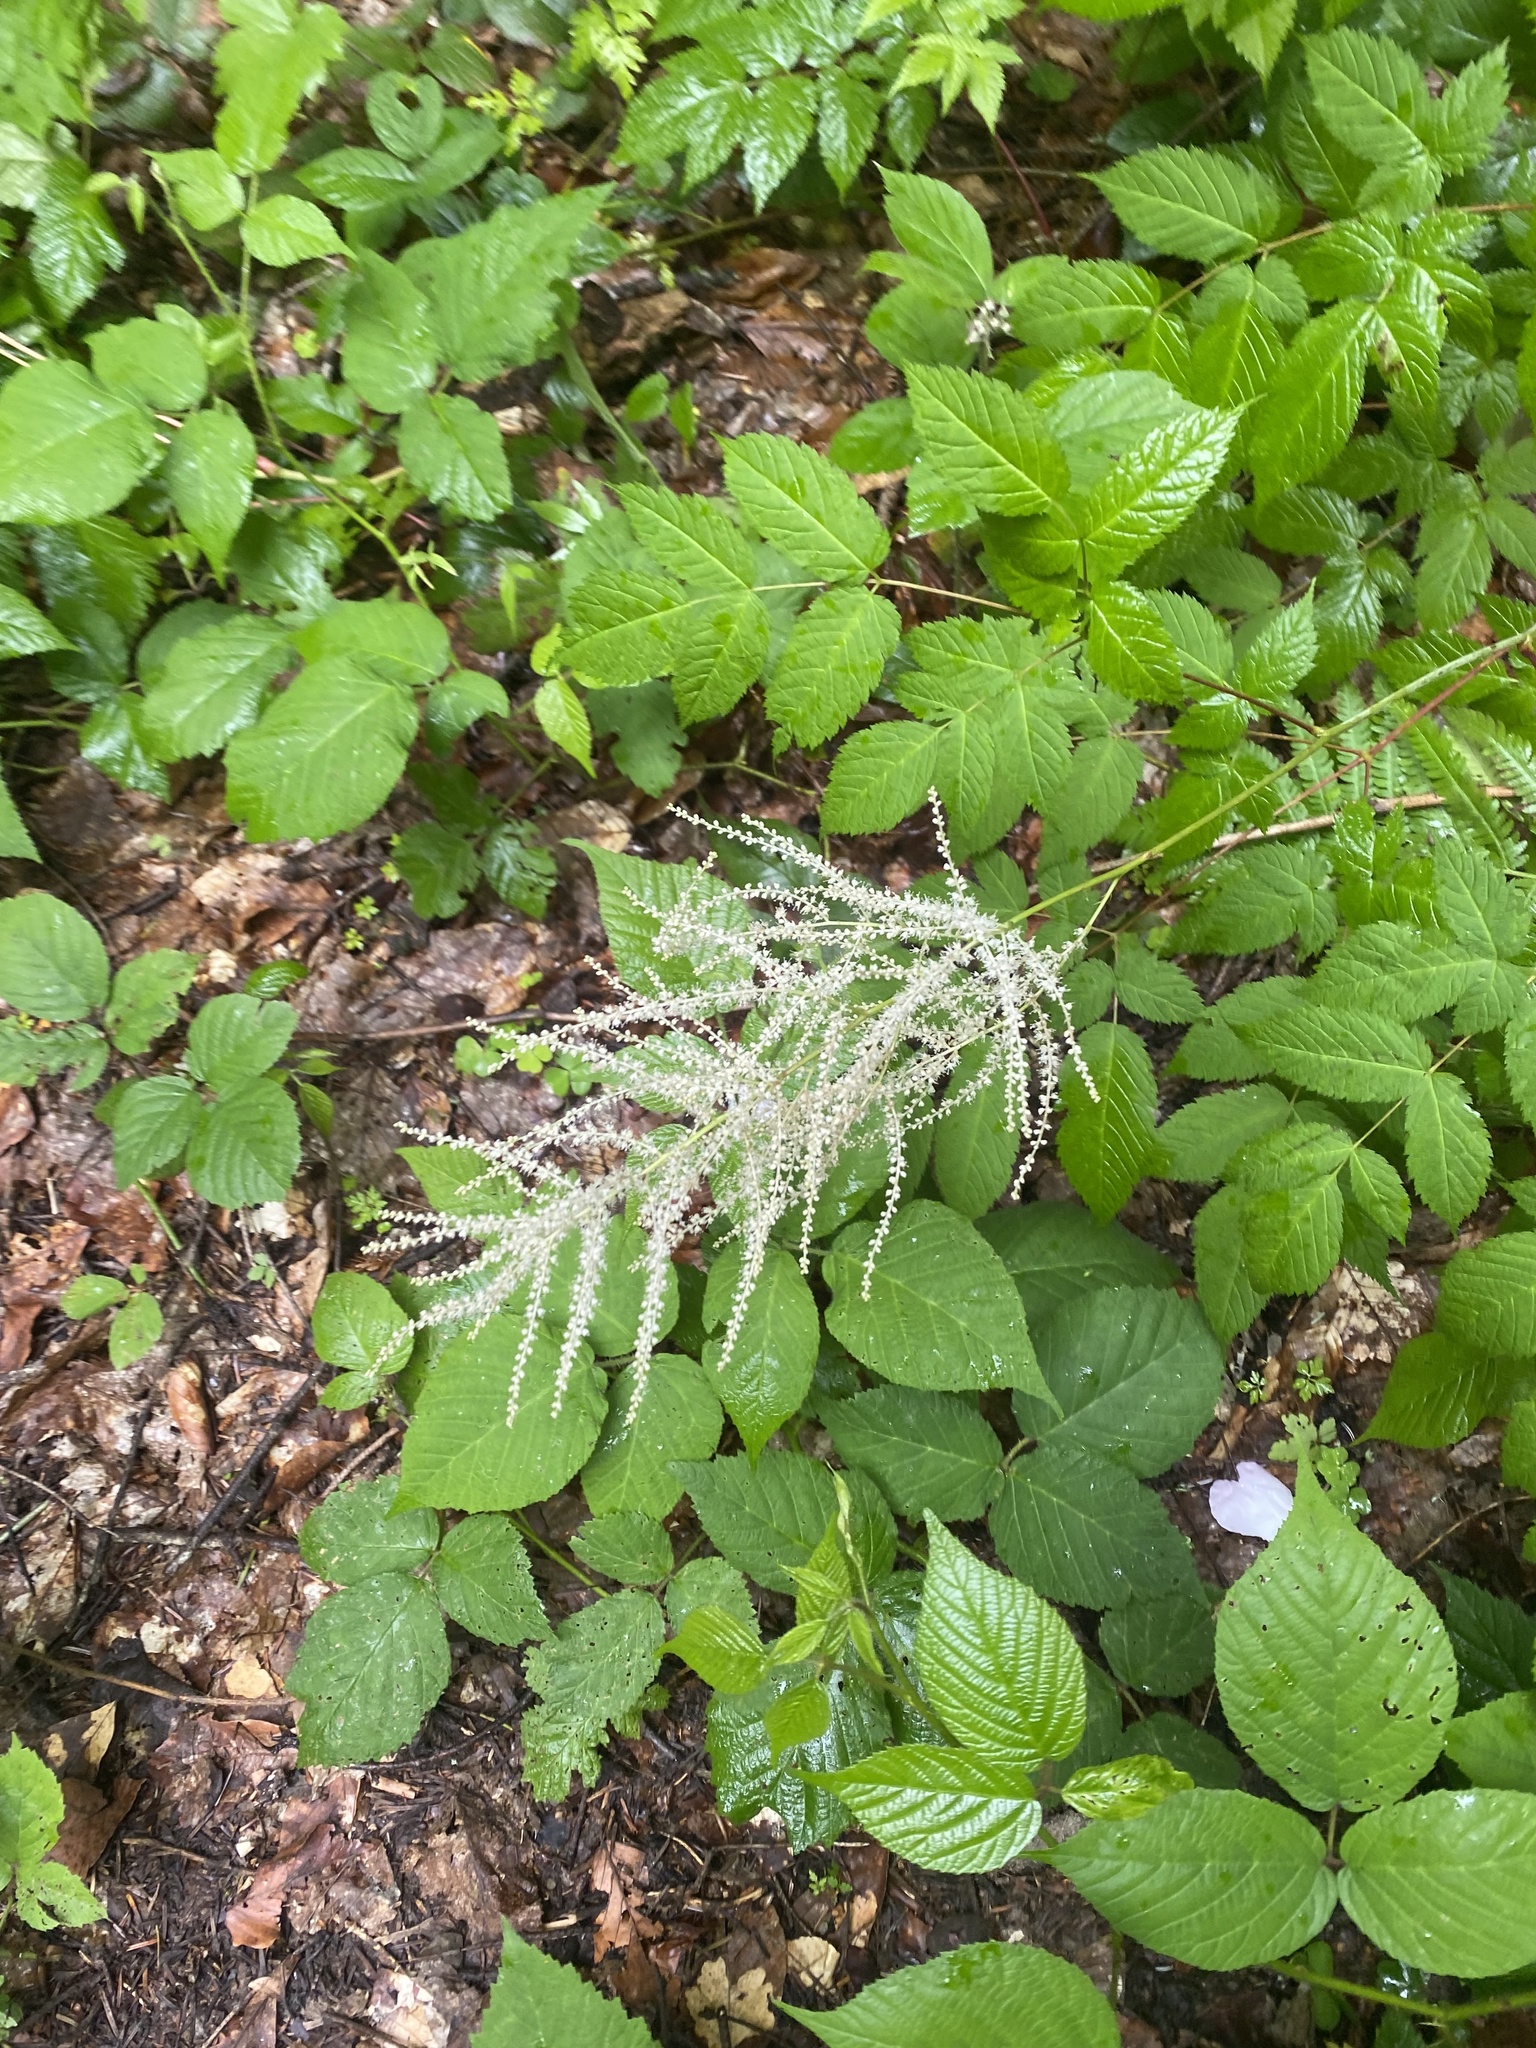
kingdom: Plantae
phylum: Tracheophyta
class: Magnoliopsida
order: Rosales
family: Rosaceae
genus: Aruncus
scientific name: Aruncus dioicus
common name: Buck's-beard
